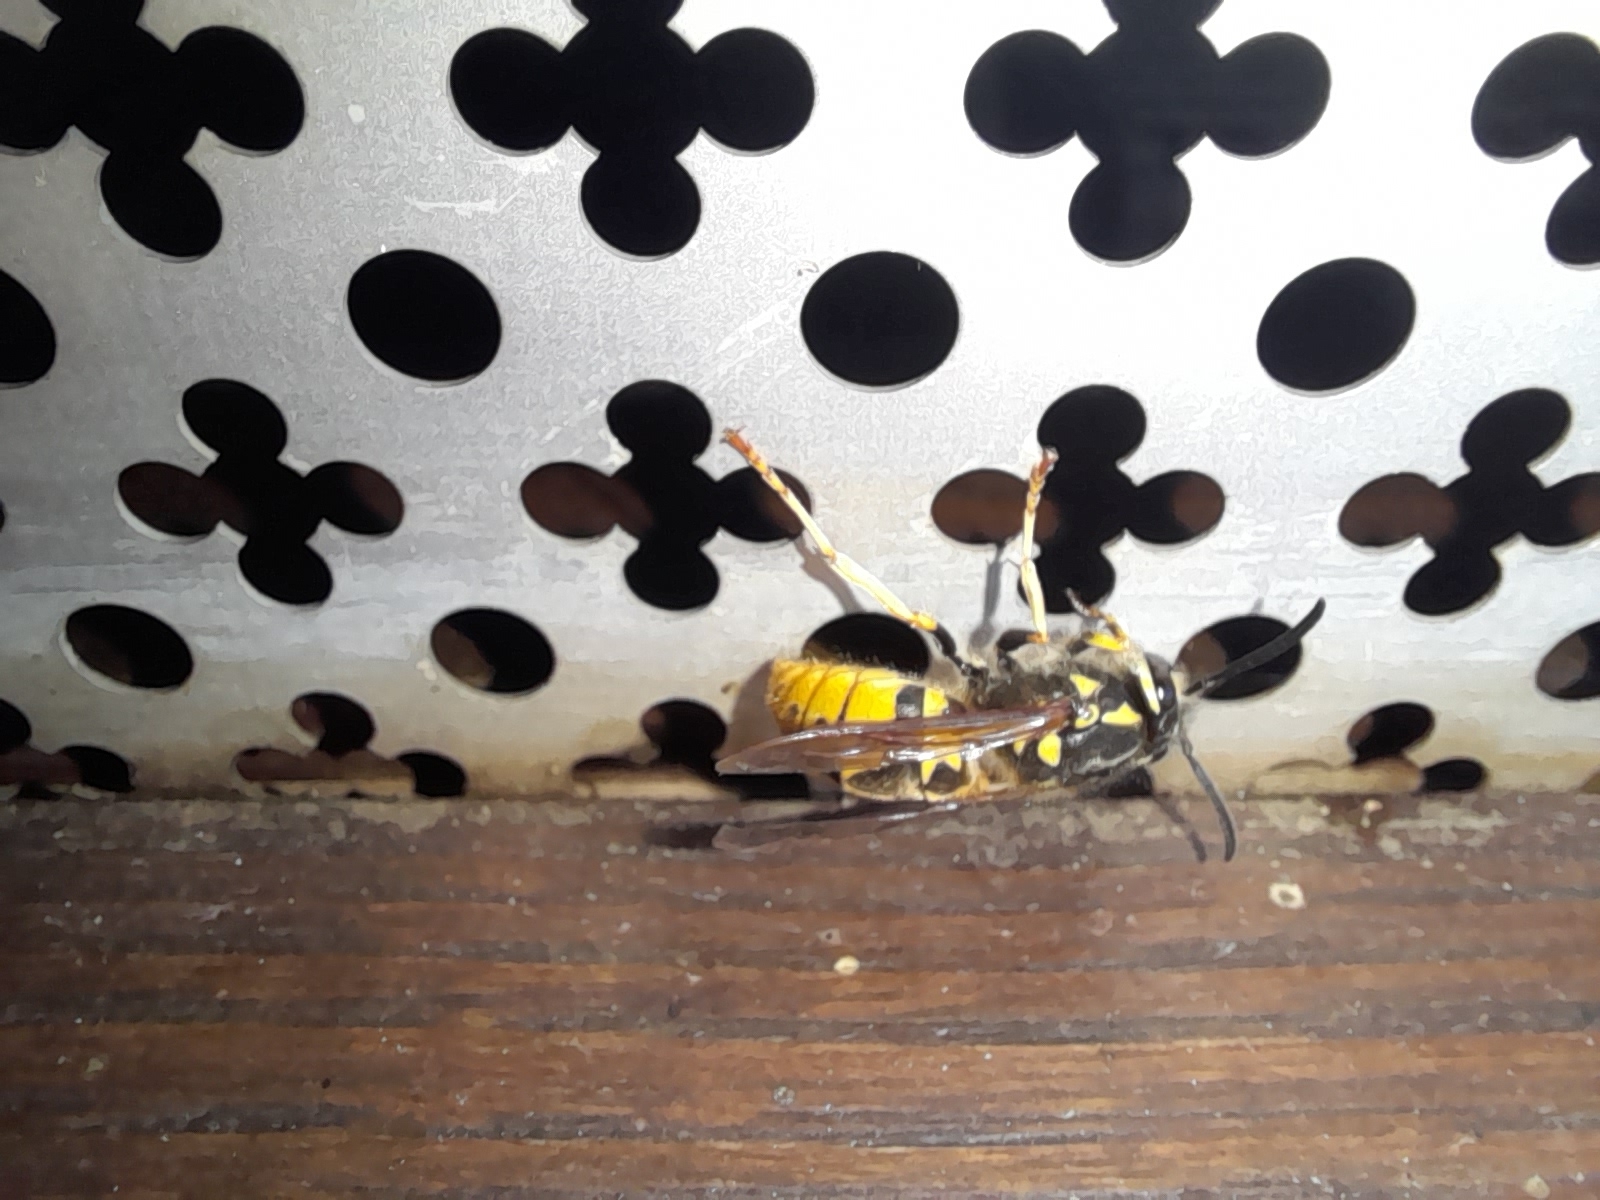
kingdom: Animalia
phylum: Arthropoda
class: Insecta
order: Hymenoptera
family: Vespidae
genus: Vespula
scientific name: Vespula germanica
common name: German wasp
